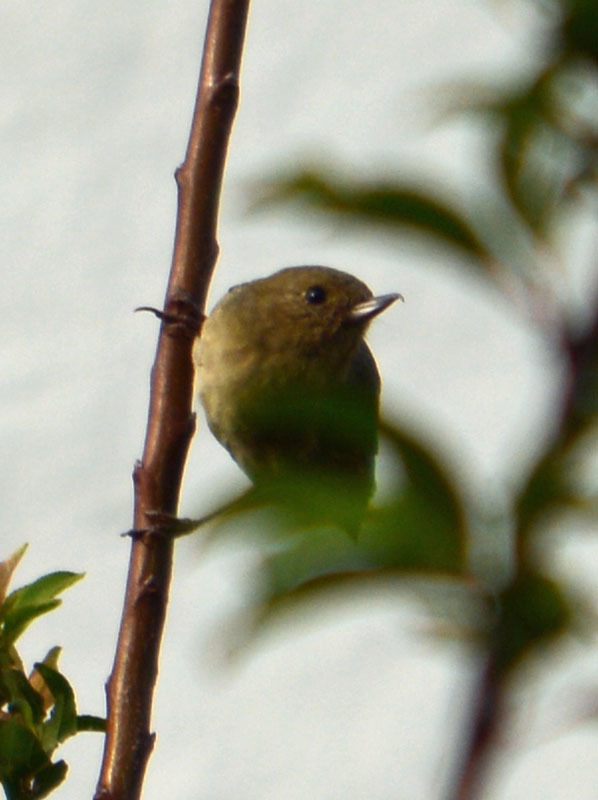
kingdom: Animalia
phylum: Chordata
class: Aves
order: Passeriformes
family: Thraupidae
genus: Diglossa
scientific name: Diglossa baritula
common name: Cinnamon-bellied flowerpiercer
